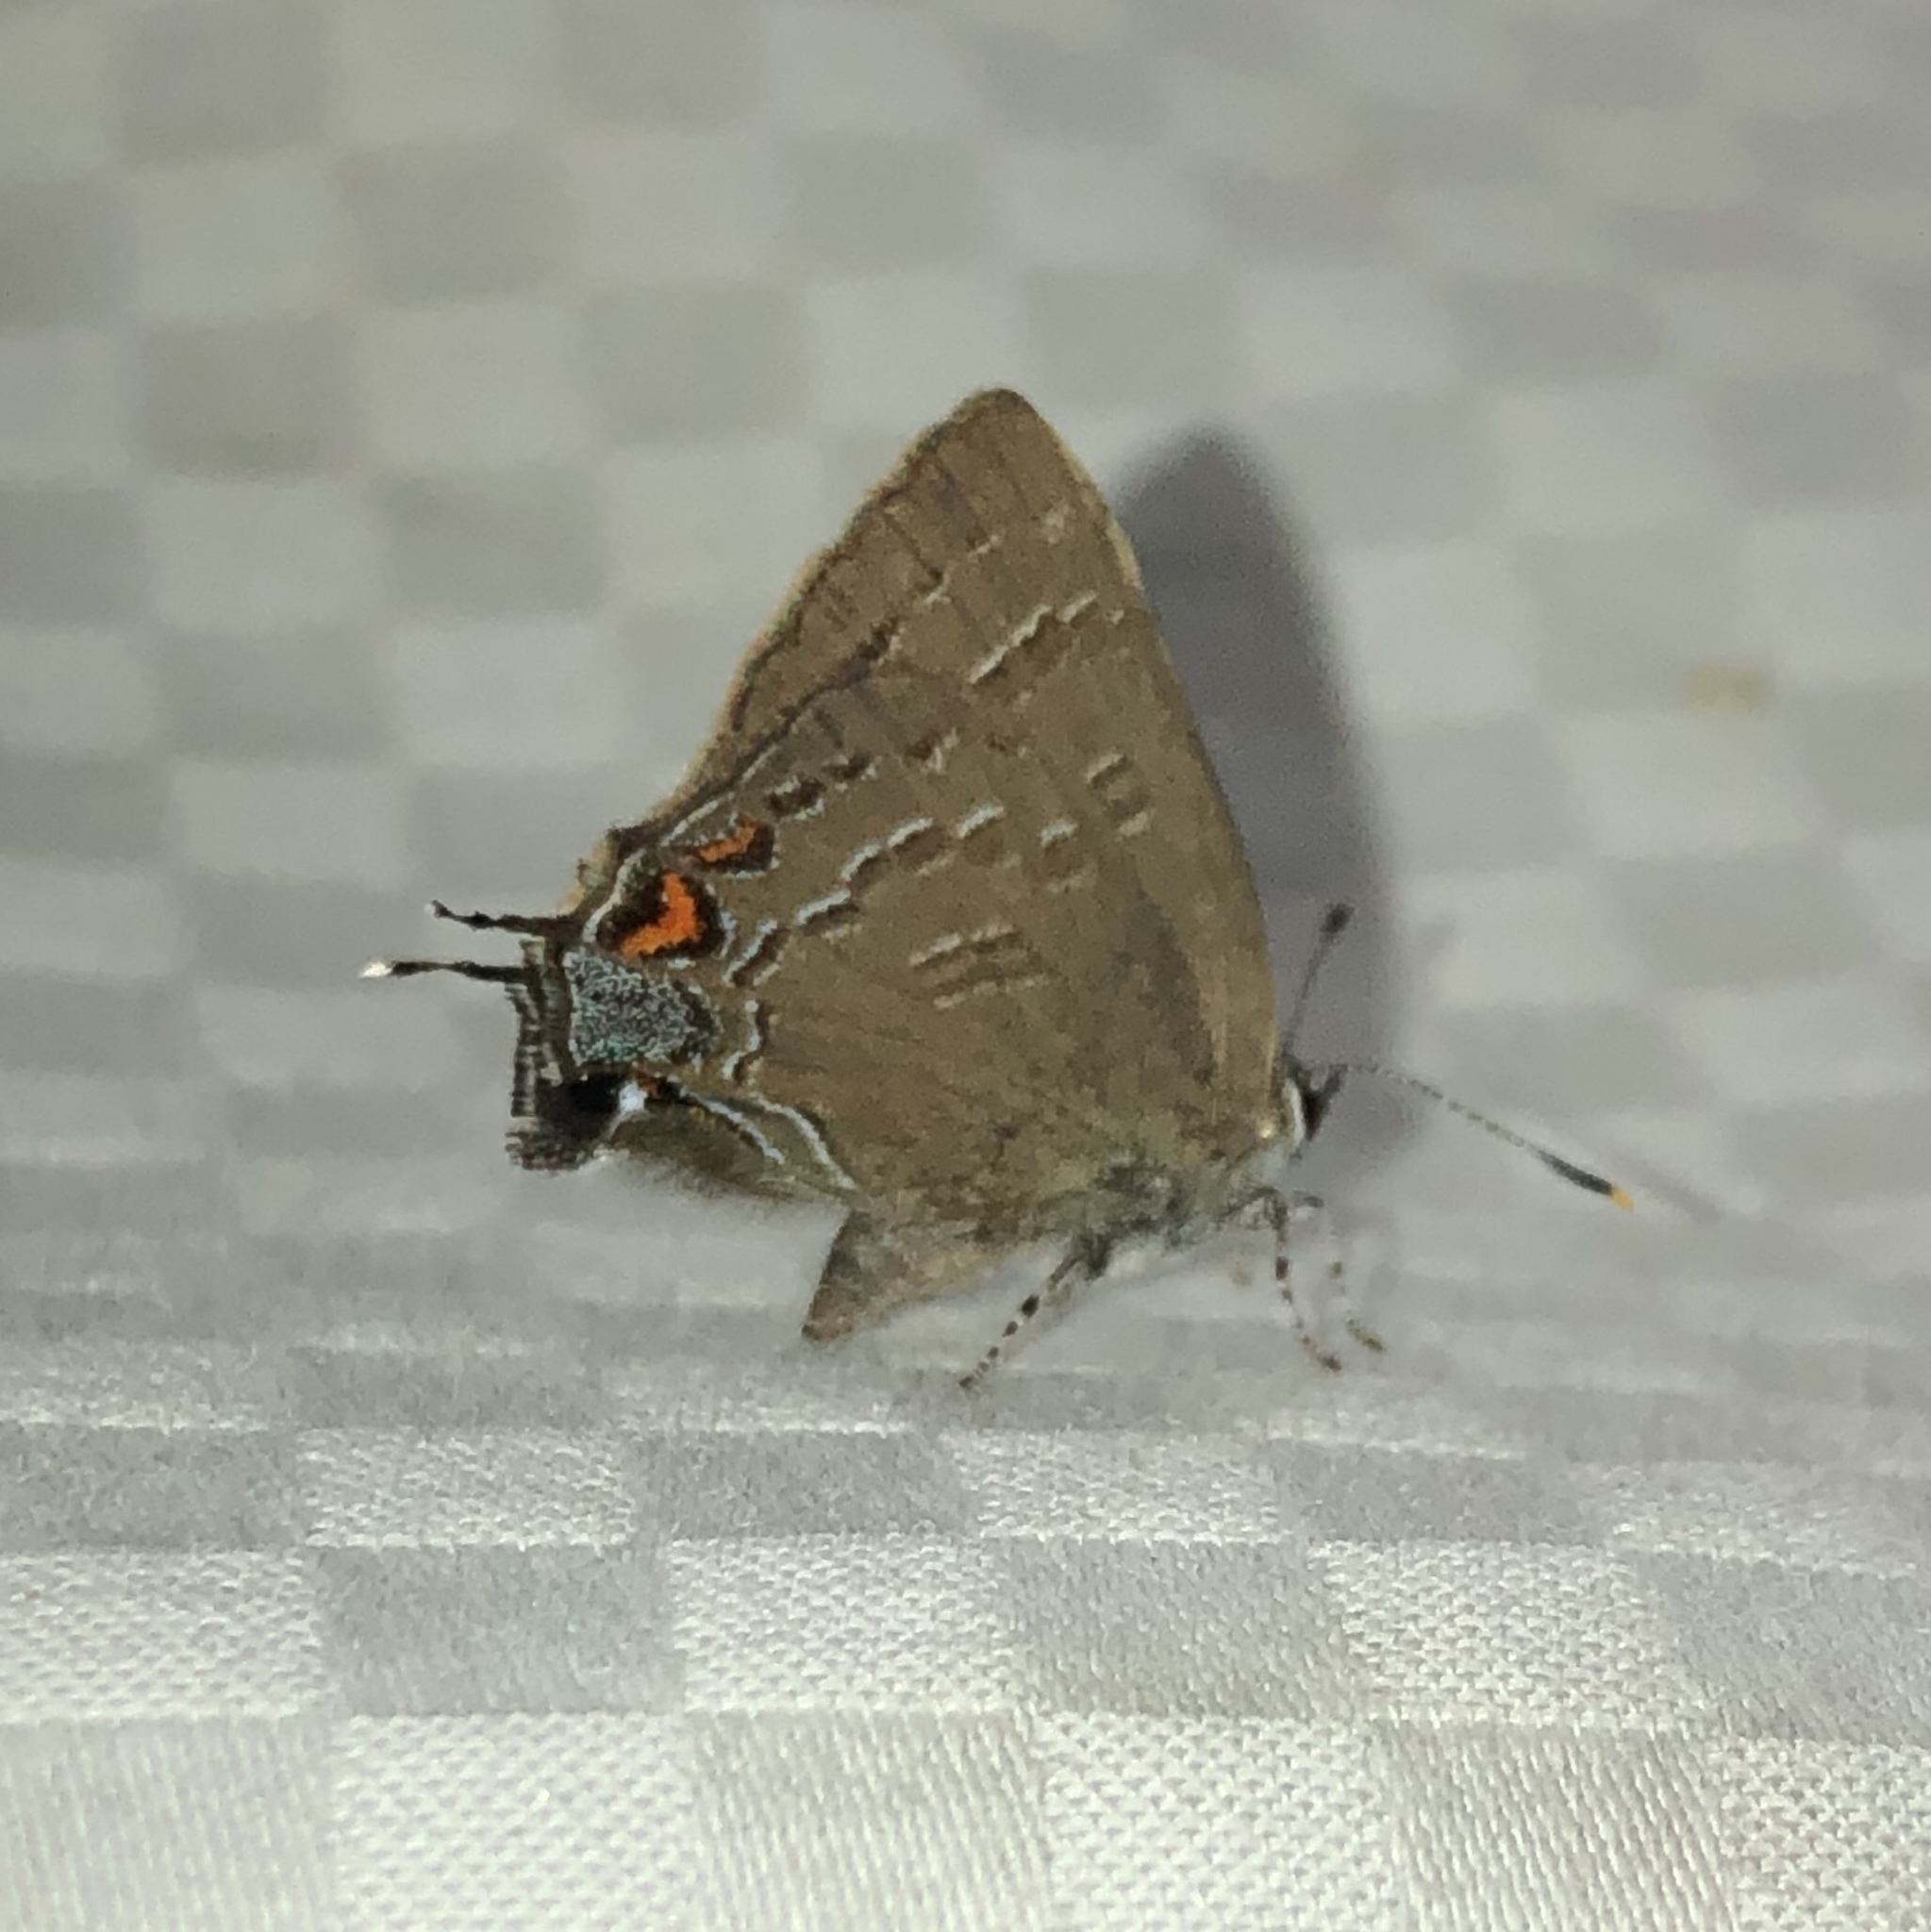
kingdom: Animalia
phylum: Arthropoda
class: Insecta
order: Lepidoptera
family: Lycaenidae
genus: Satyrium
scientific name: Satyrium calanus
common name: Banded hairstreak
